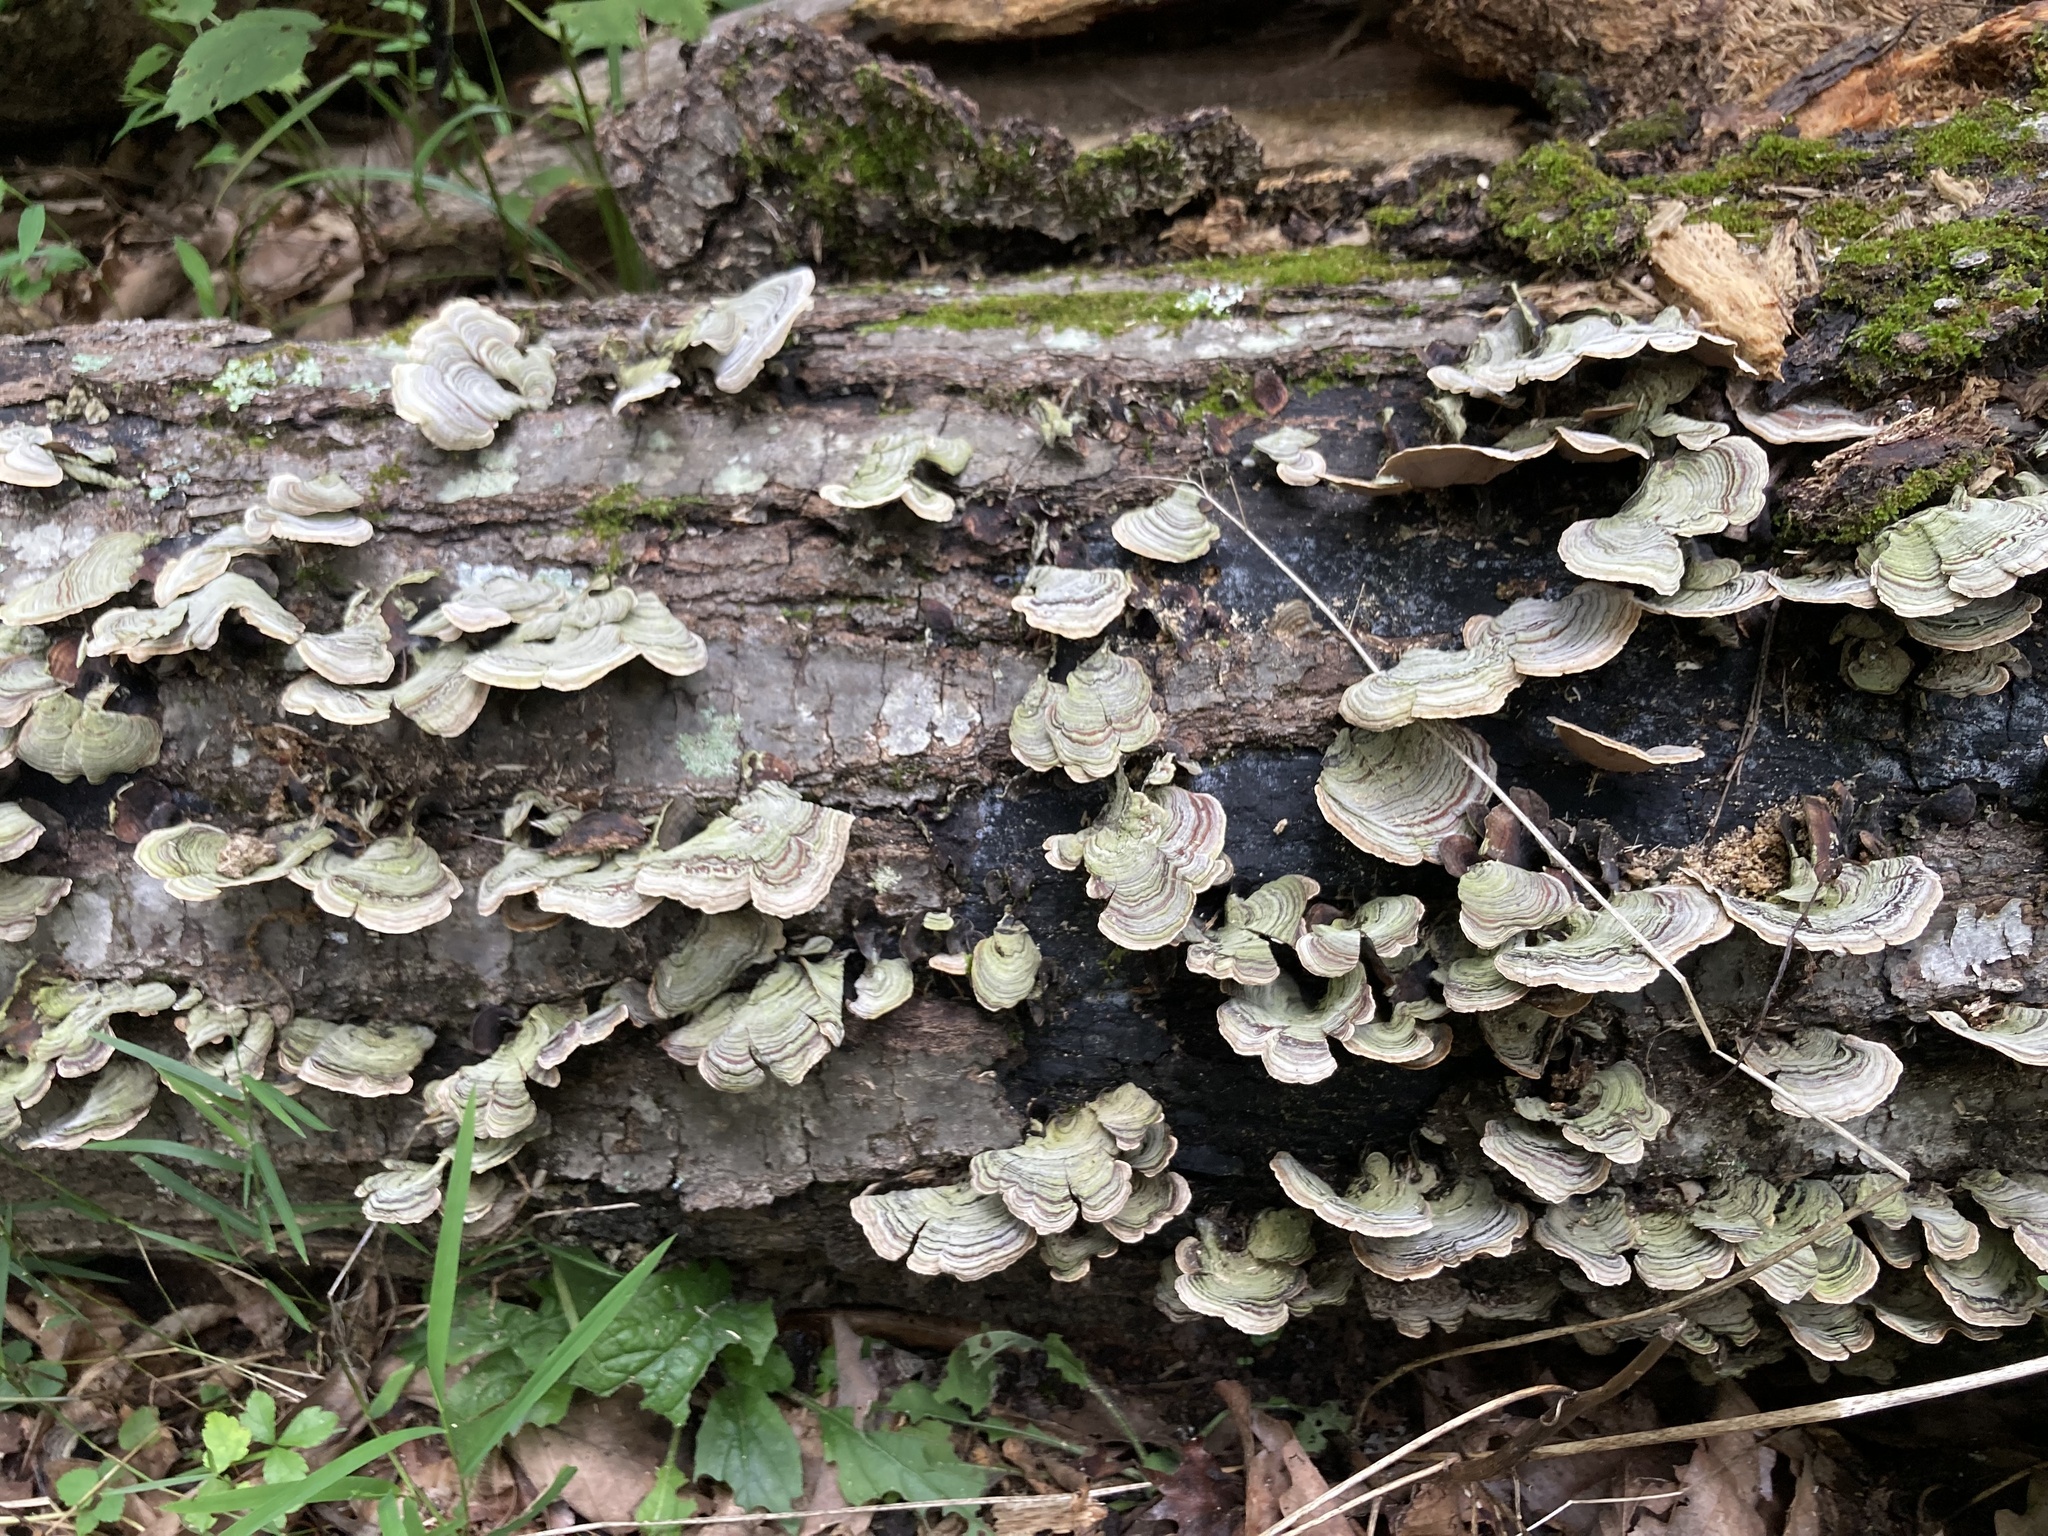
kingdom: Fungi
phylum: Basidiomycota
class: Agaricomycetes
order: Russulales
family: Stereaceae
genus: Stereum
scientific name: Stereum lobatum
